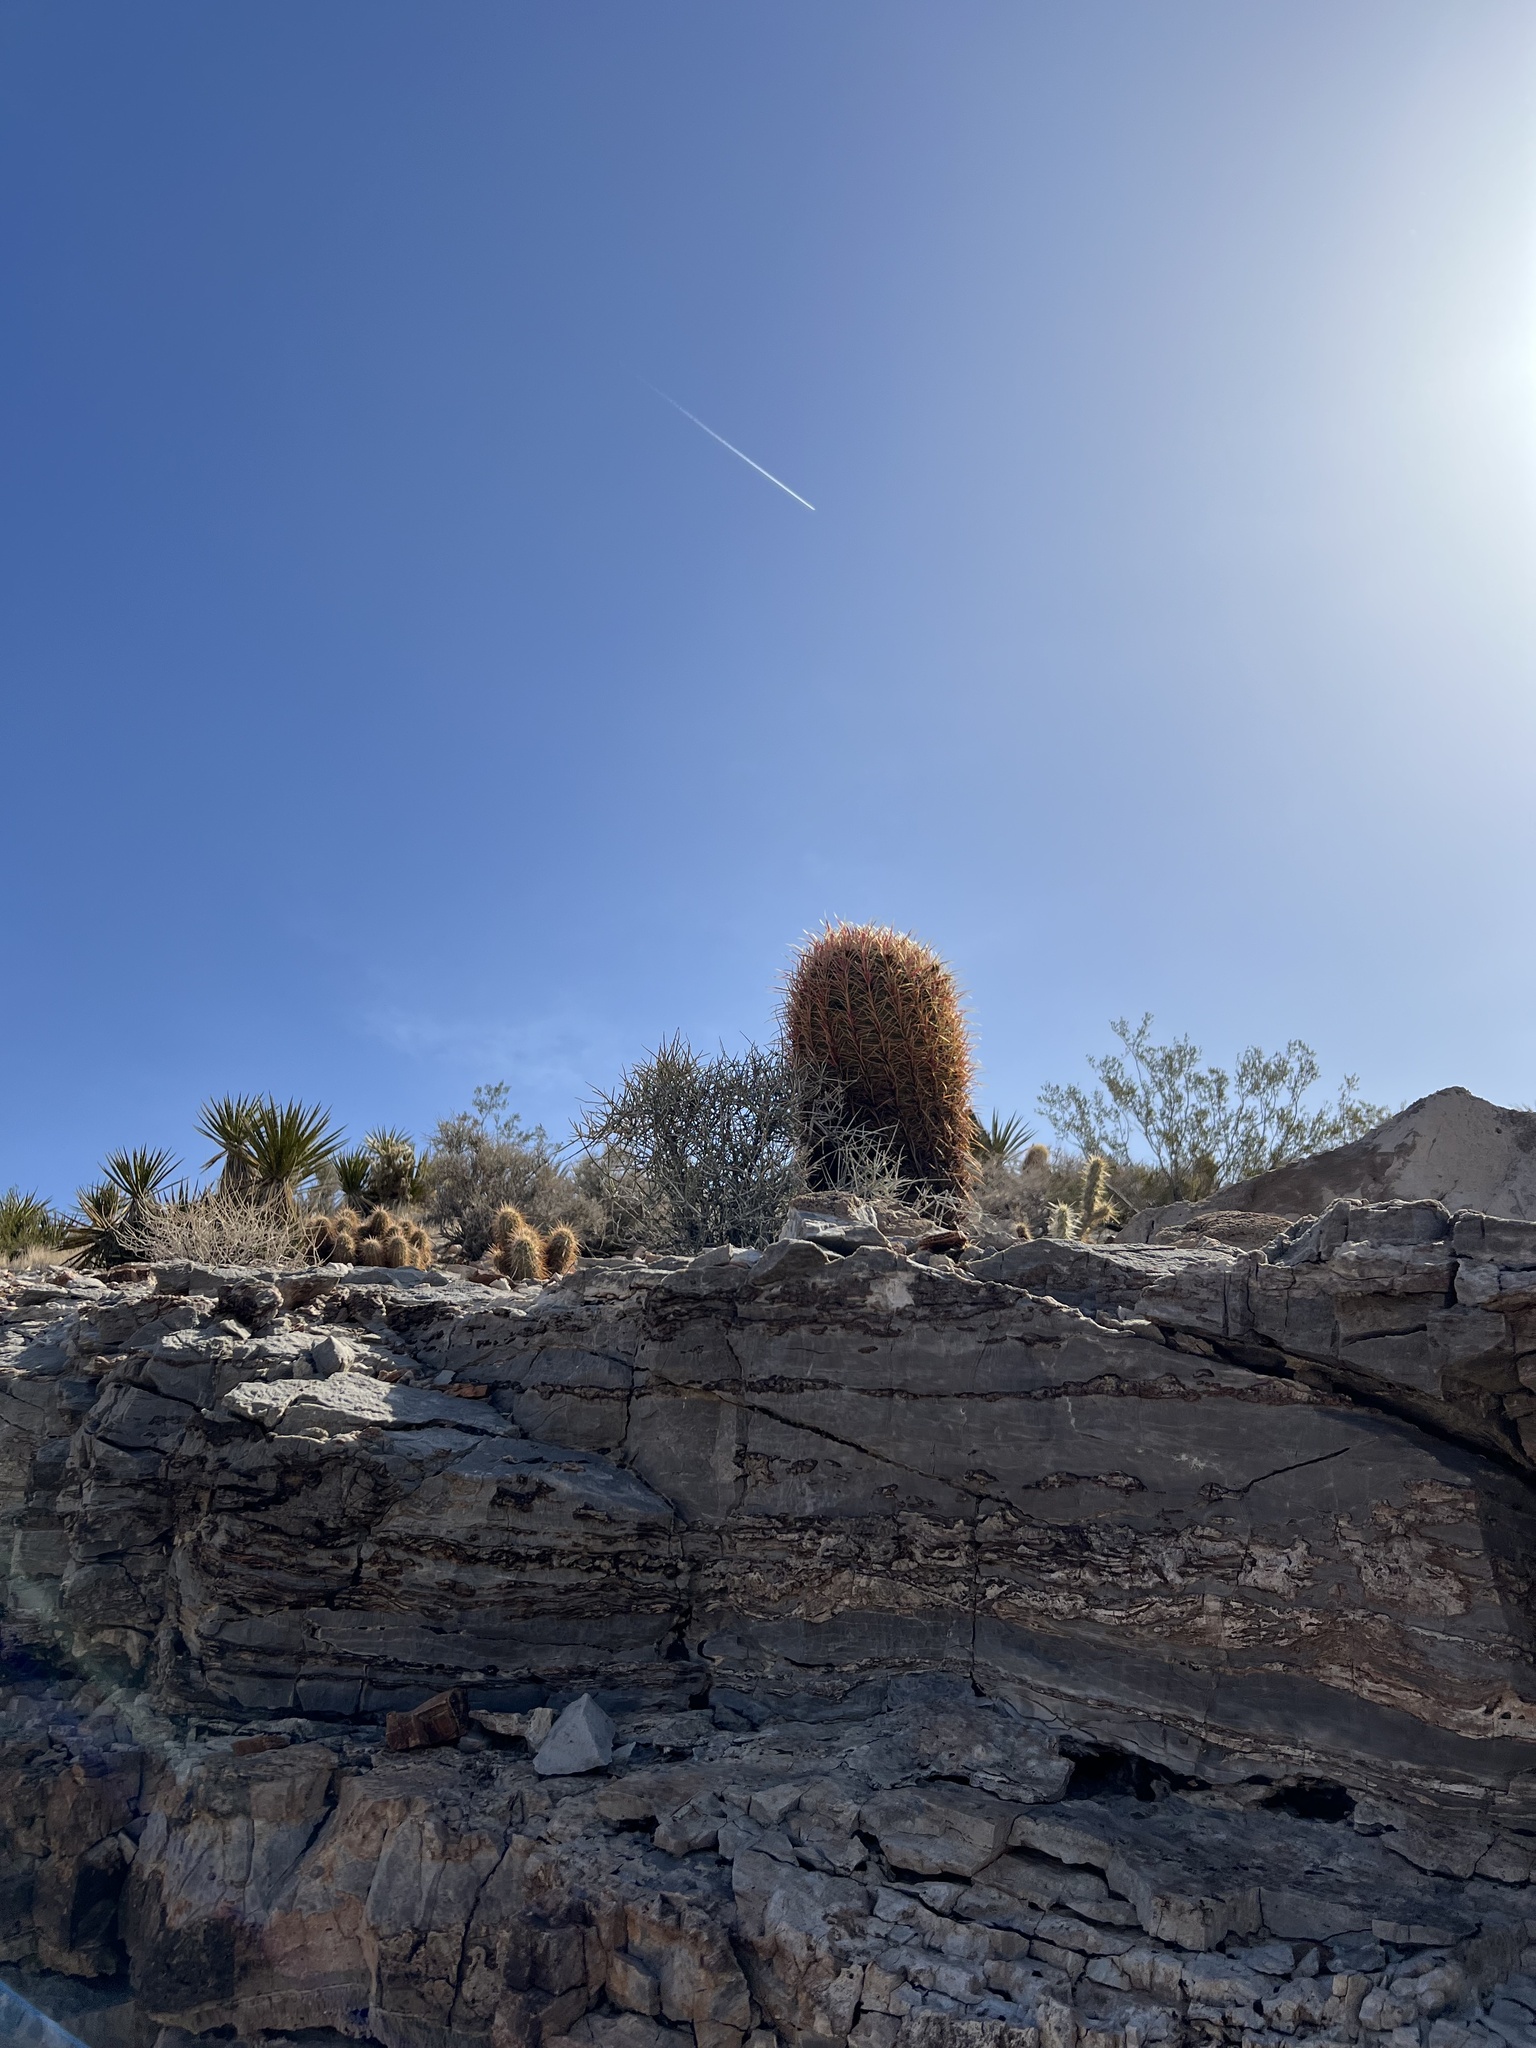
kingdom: Plantae
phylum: Tracheophyta
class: Magnoliopsida
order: Caryophyllales
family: Cactaceae
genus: Ferocactus
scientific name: Ferocactus cylindraceus
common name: California barrel cactus
